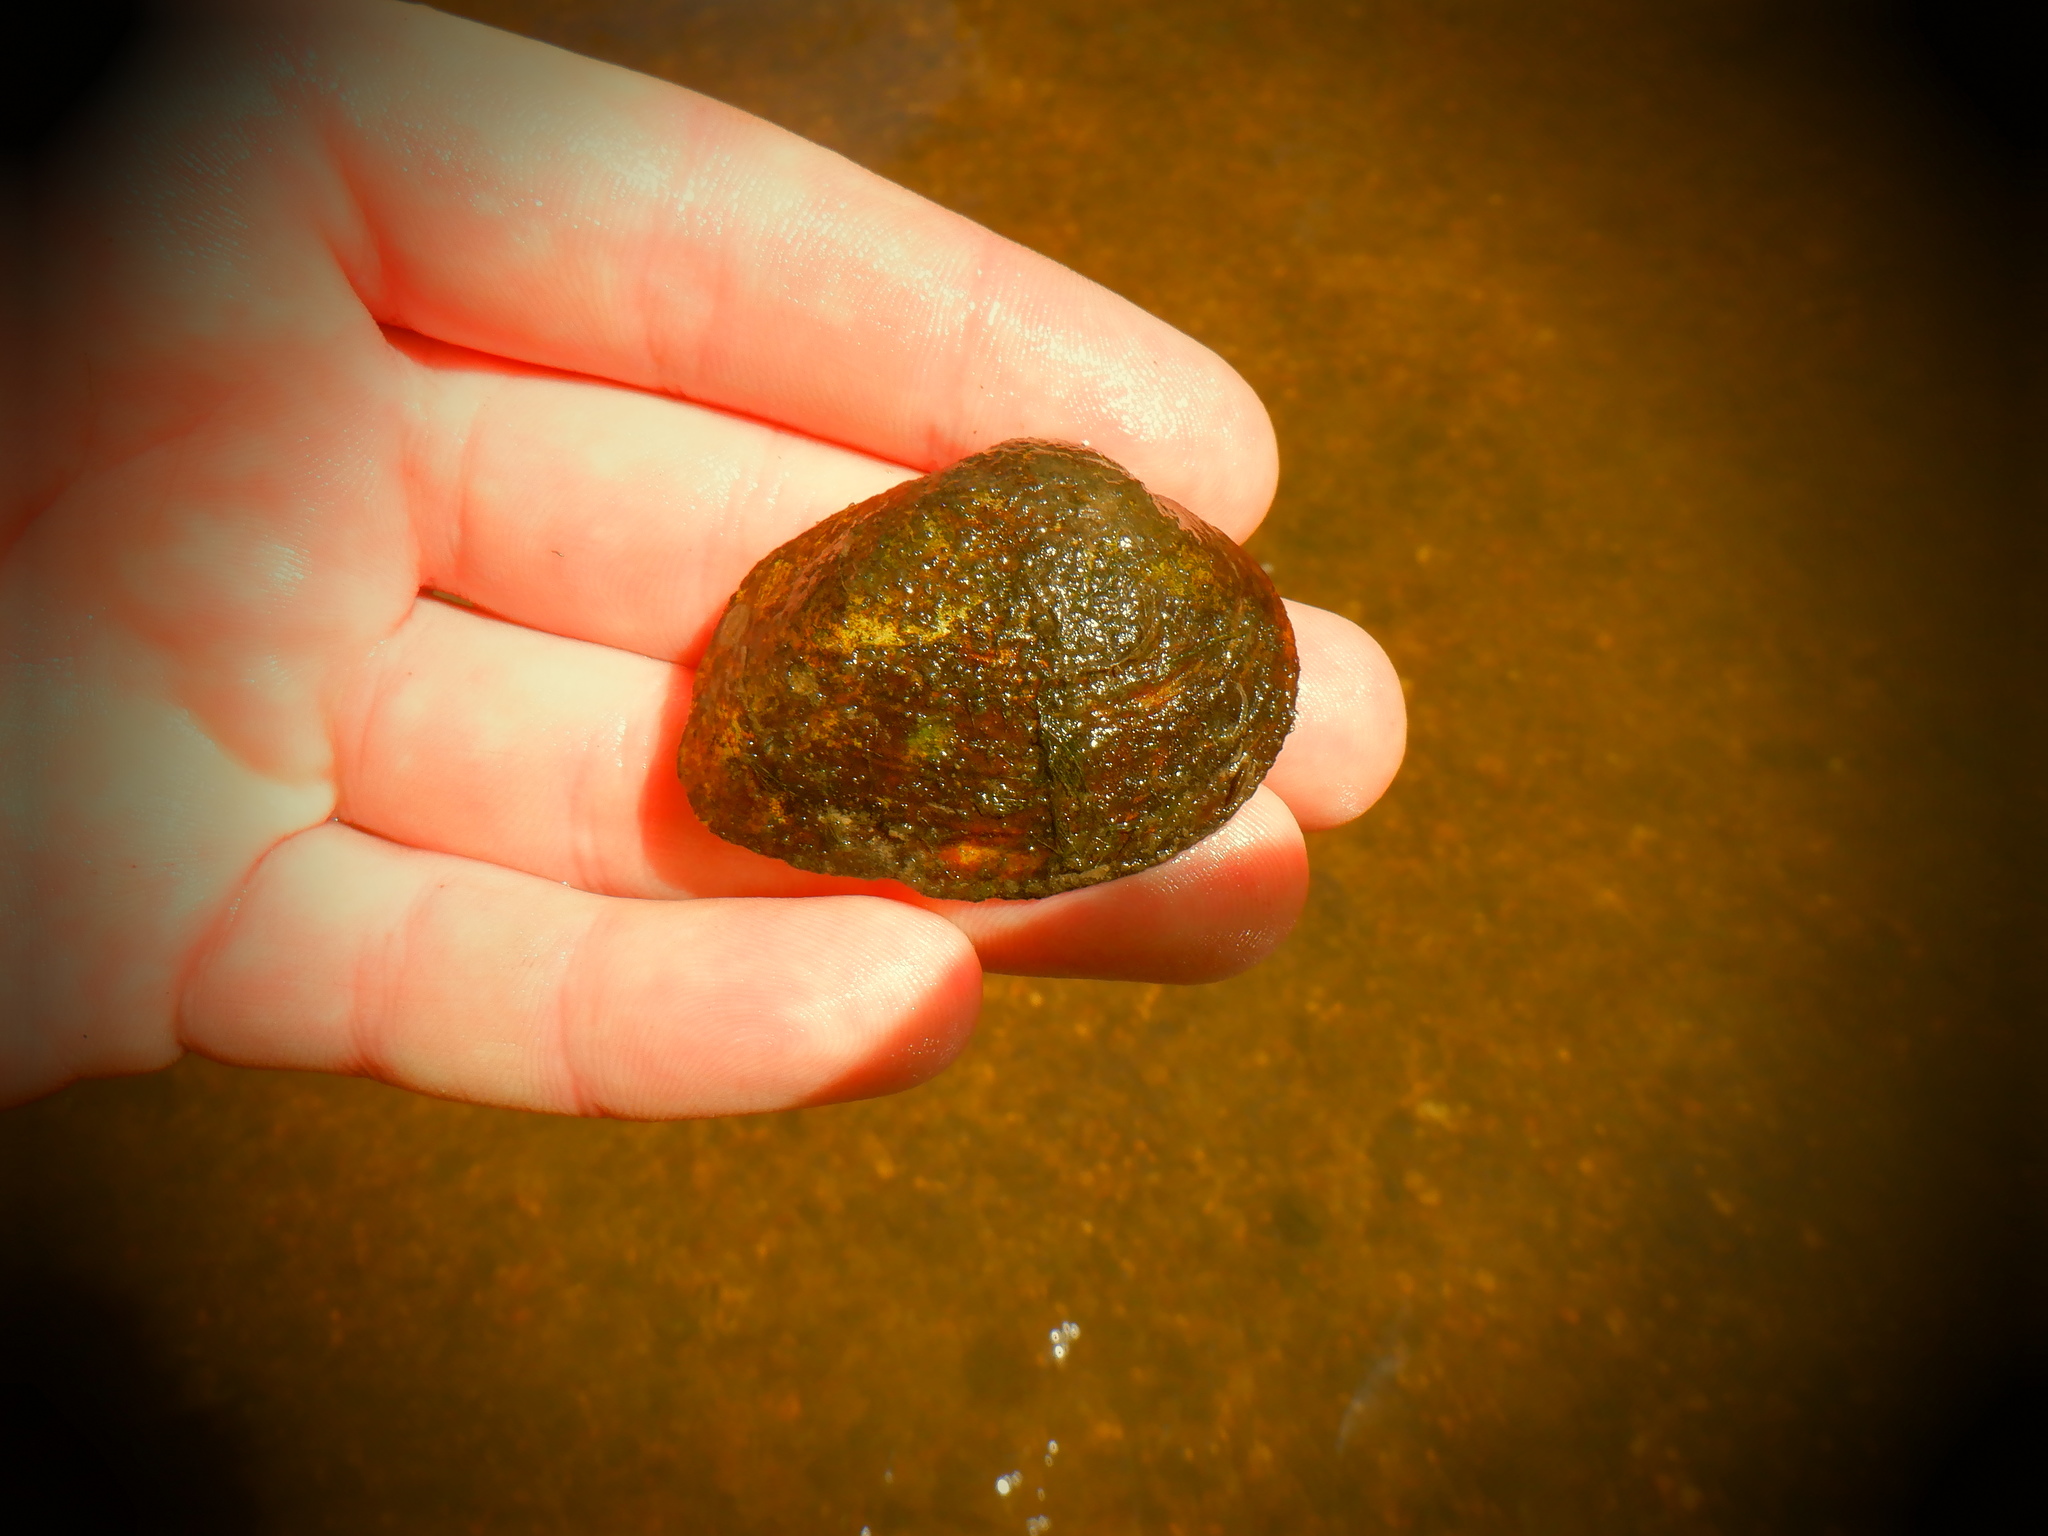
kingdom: Animalia
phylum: Mollusca
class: Bivalvia
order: Unionida
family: Unionidae
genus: Fusconaia
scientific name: Fusconaia flava
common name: Wabash pigtoe
